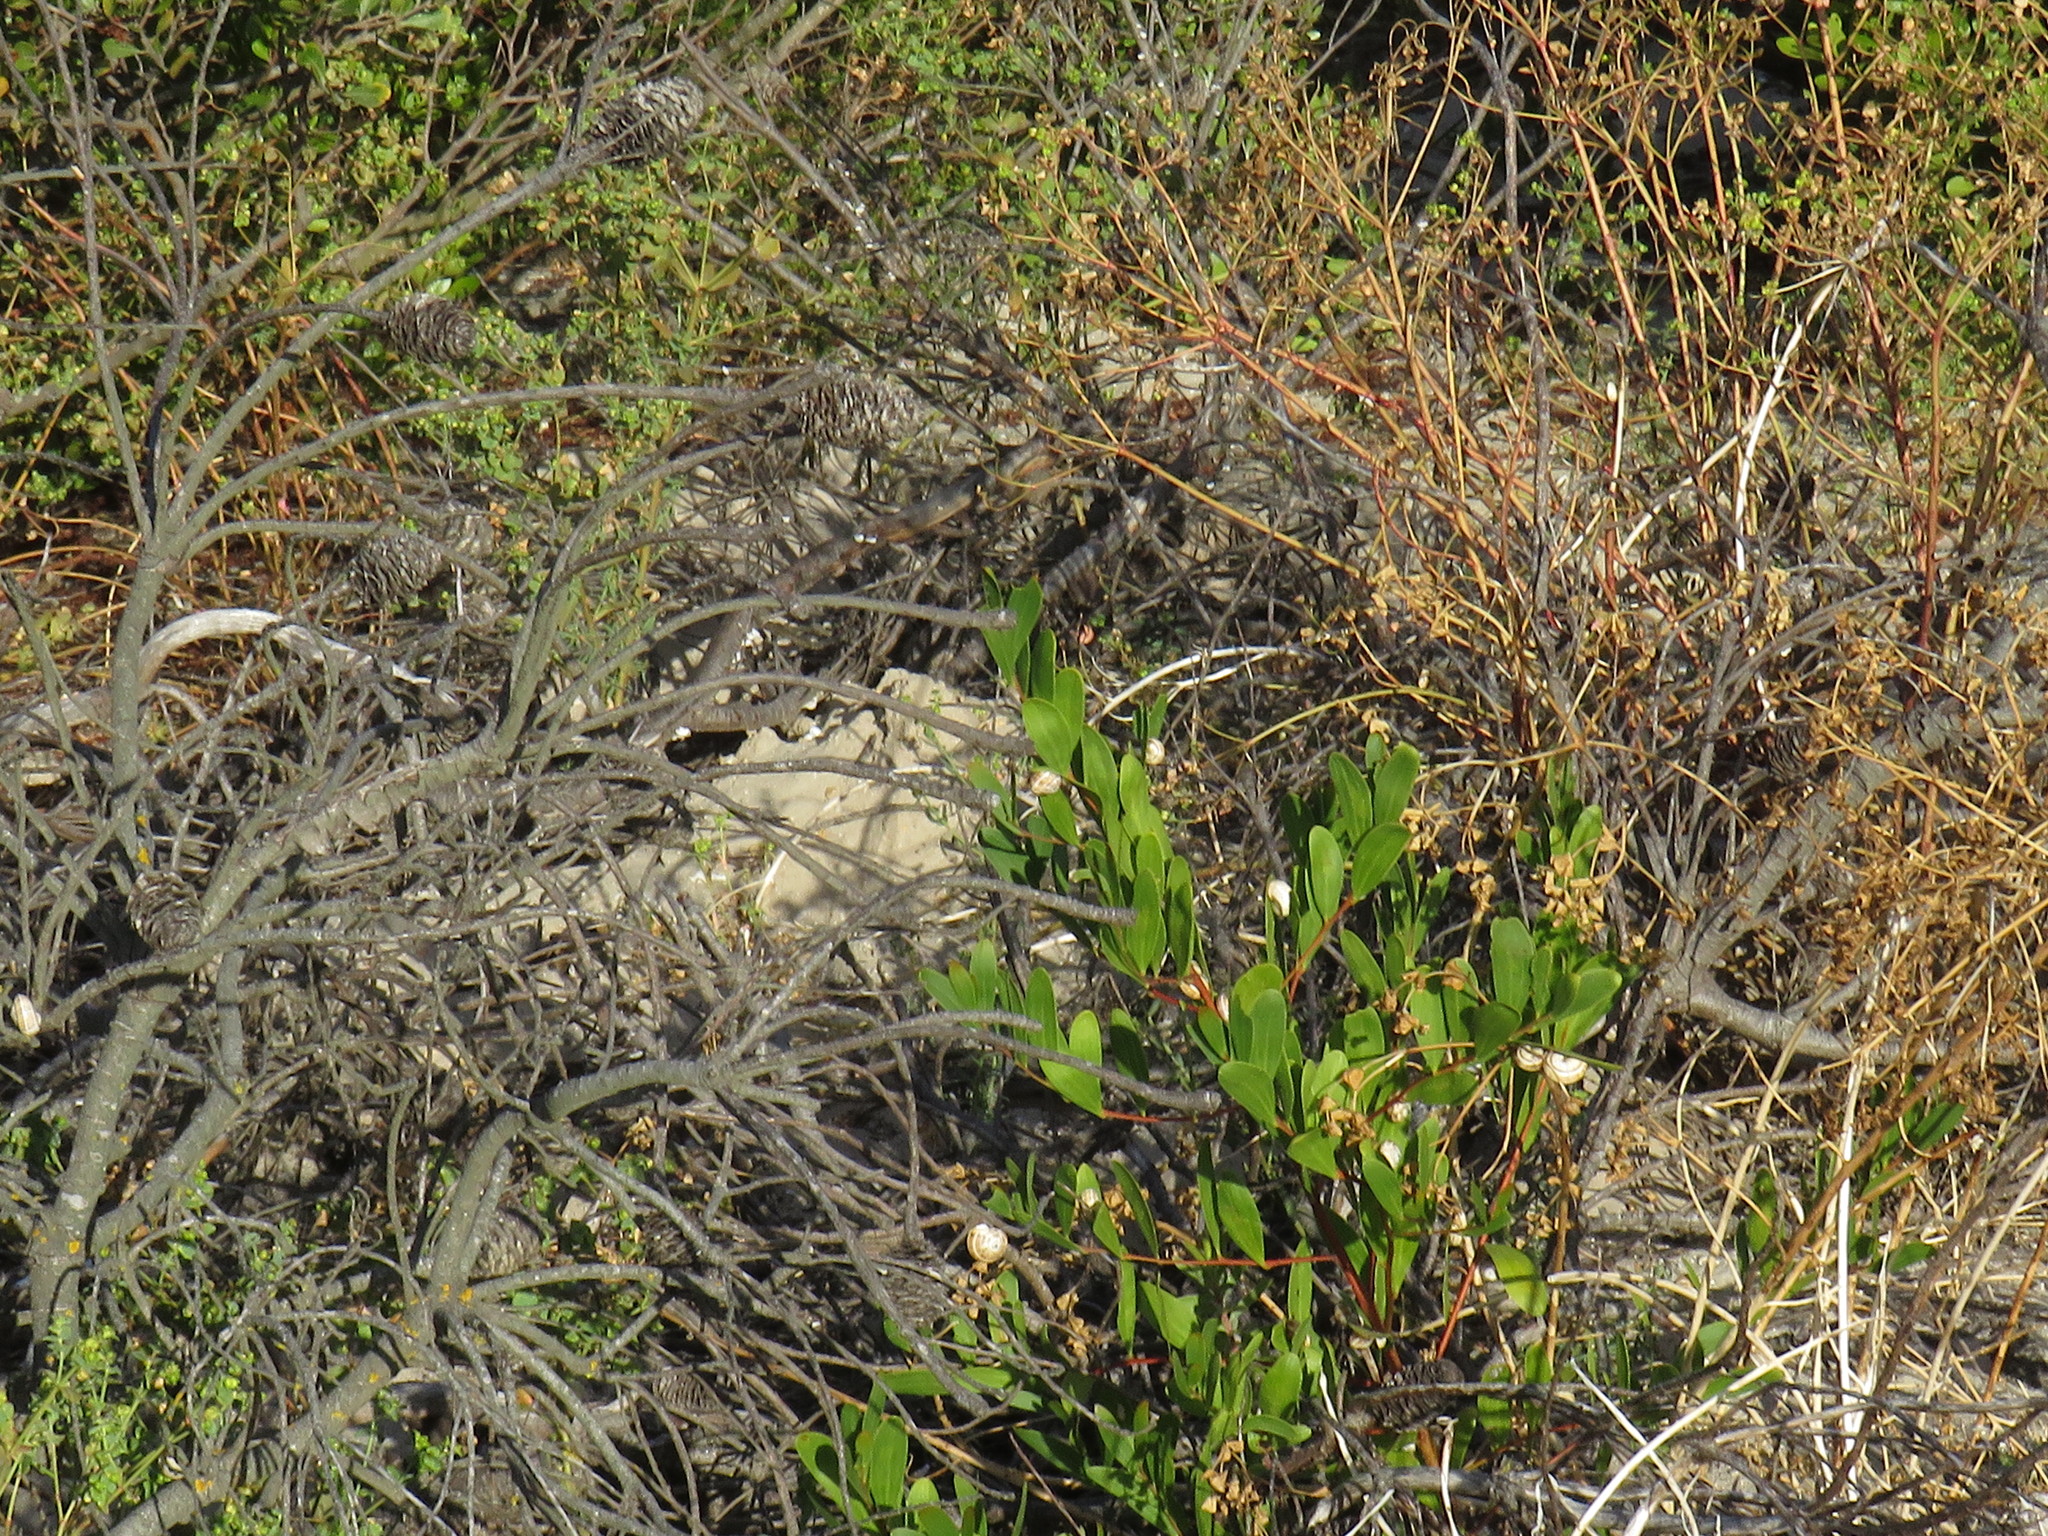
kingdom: Plantae
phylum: Tracheophyta
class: Magnoliopsida
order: Fabales
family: Fabaceae
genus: Acacia
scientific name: Acacia cyclops
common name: Coastal wattle
